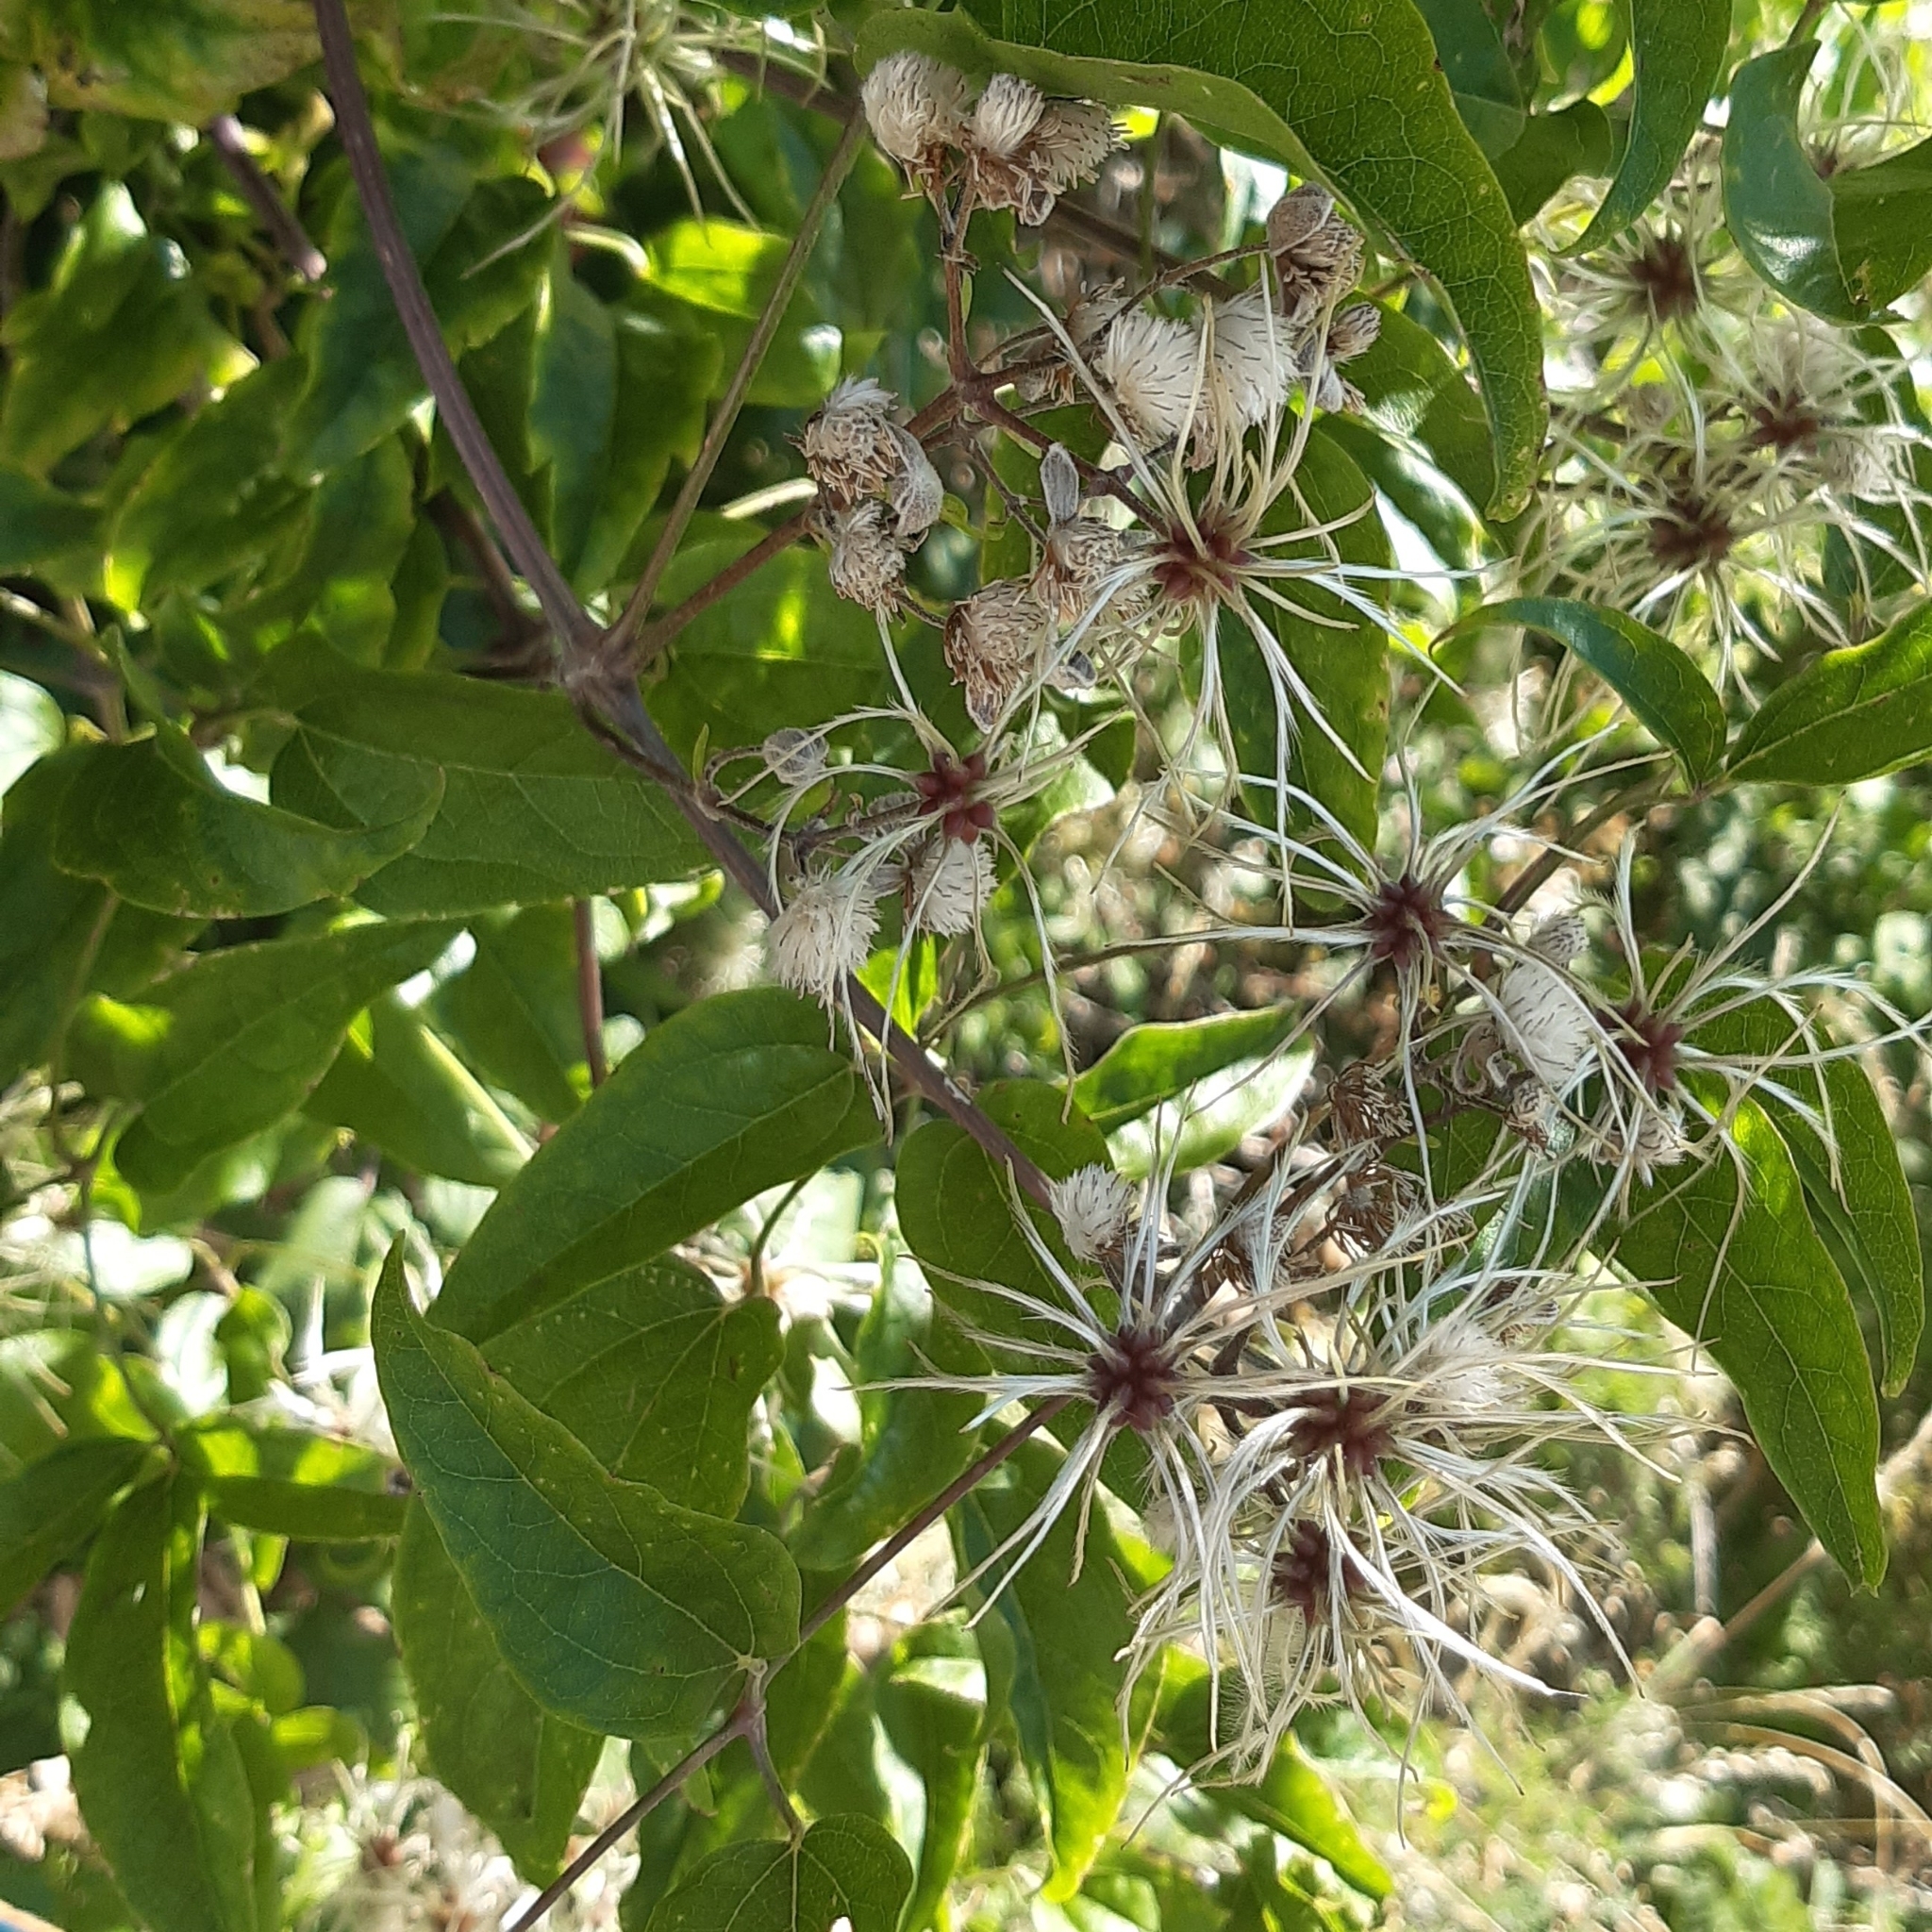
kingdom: Plantae
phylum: Tracheophyta
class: Magnoliopsida
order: Ranunculales
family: Ranunculaceae
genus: Clematis
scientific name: Clematis vitalba
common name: Evergreen clematis
